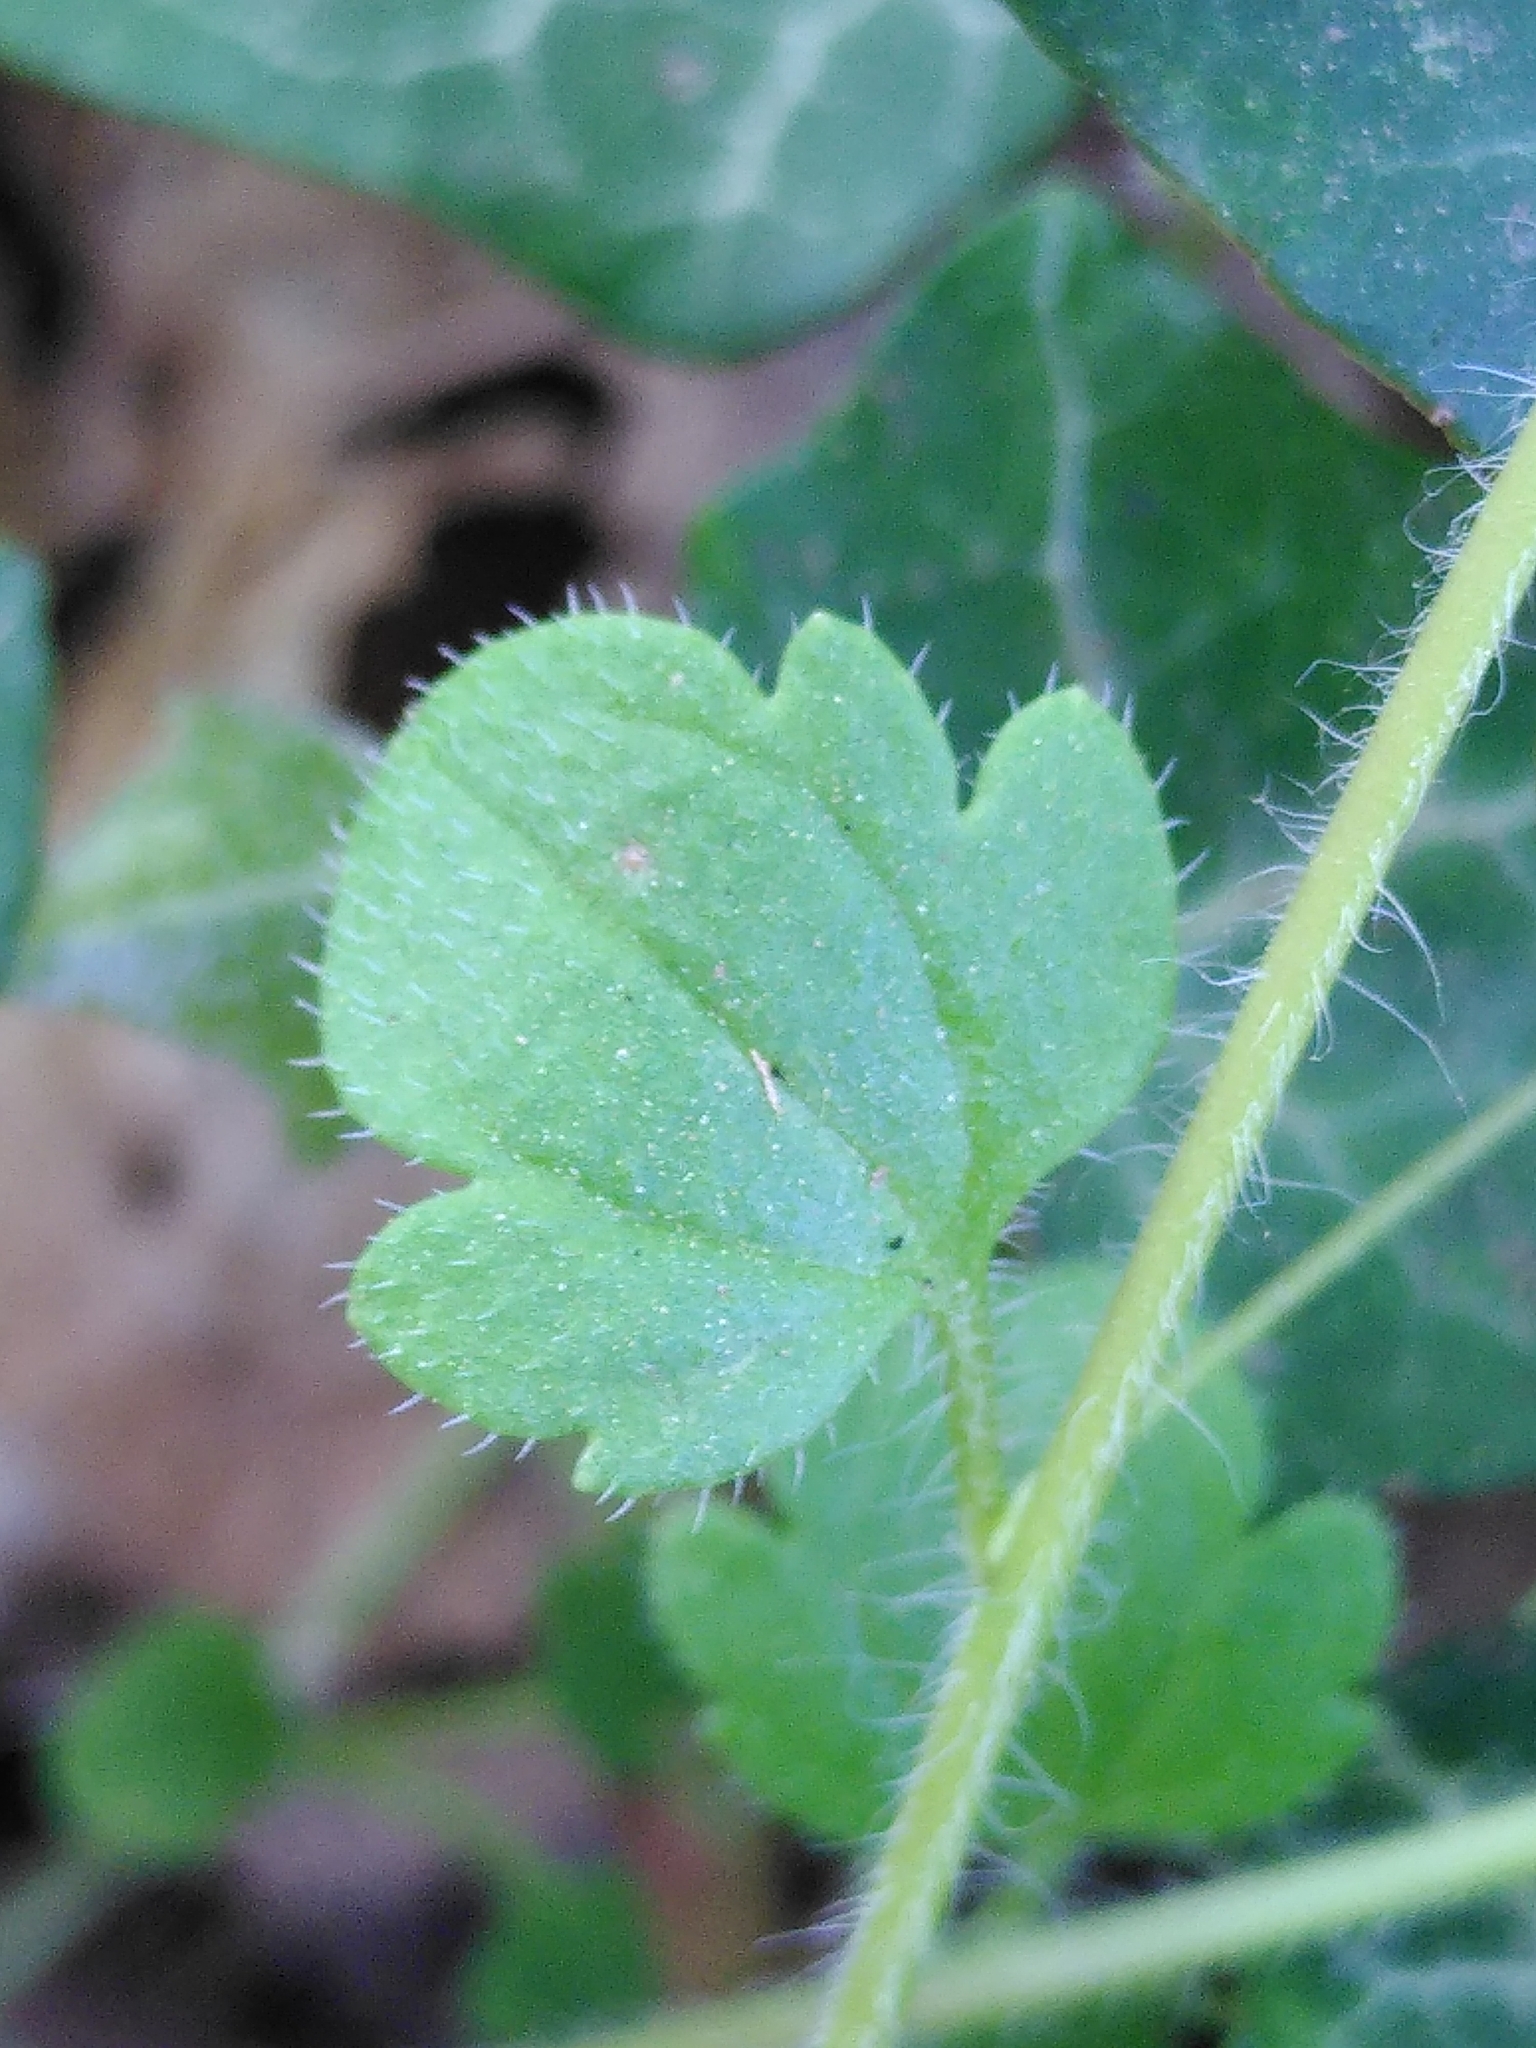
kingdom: Plantae
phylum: Tracheophyta
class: Magnoliopsida
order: Lamiales
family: Plantaginaceae
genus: Veronica
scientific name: Veronica sublobata
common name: False ivy-leaved speedwell
